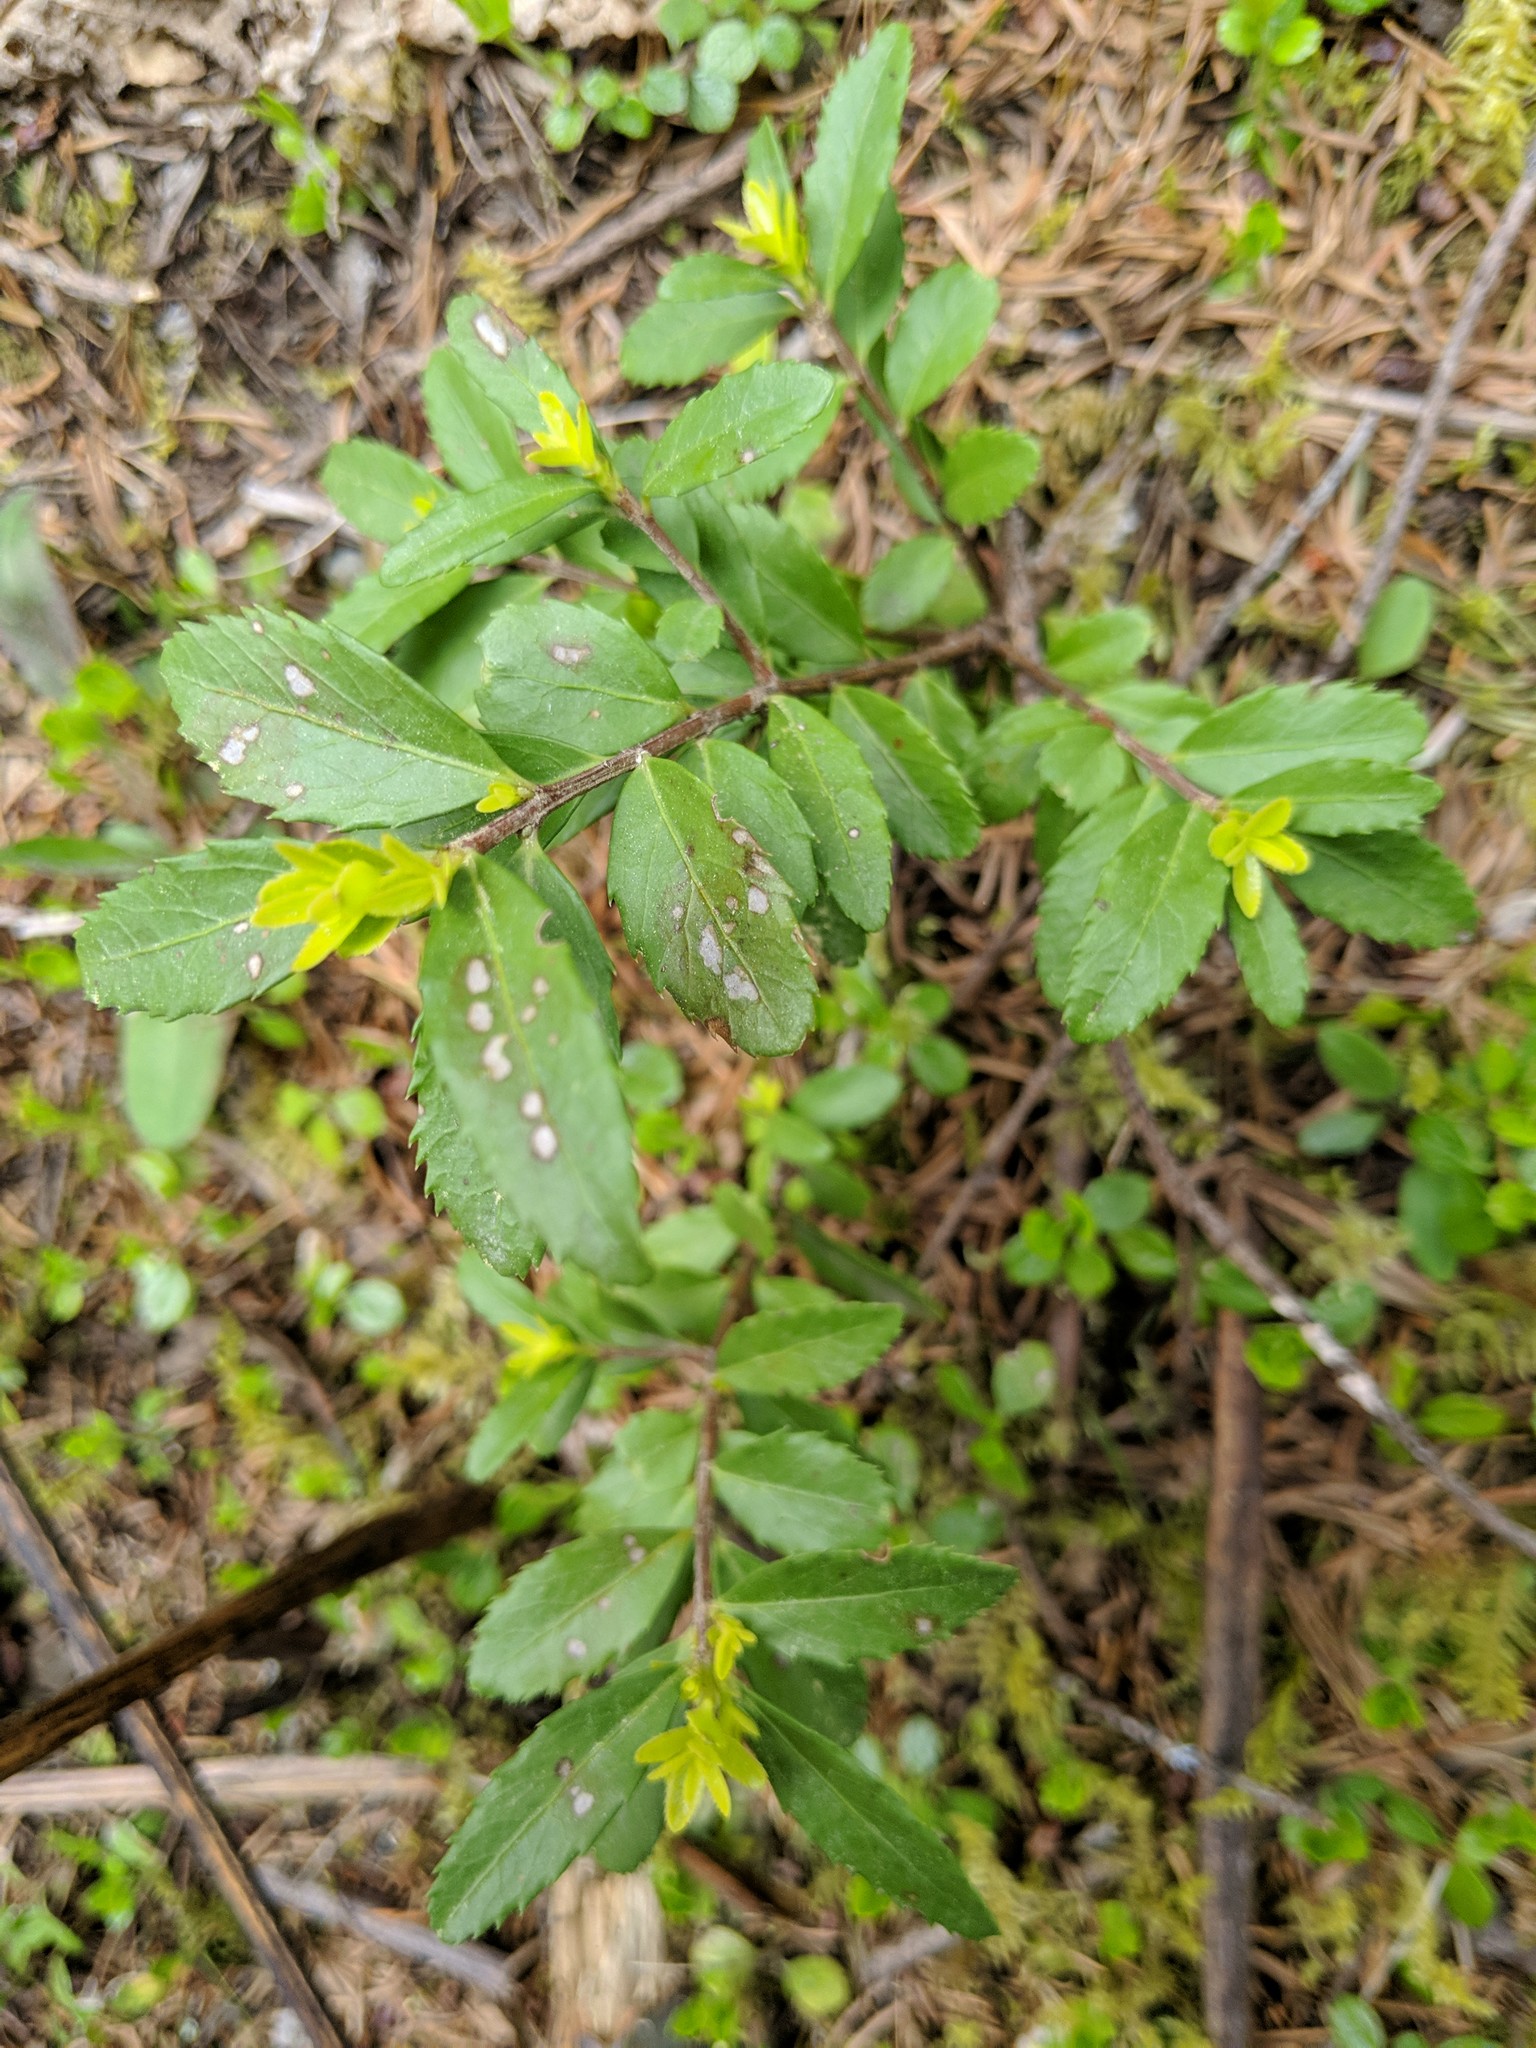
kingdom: Plantae
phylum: Tracheophyta
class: Magnoliopsida
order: Celastrales
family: Celastraceae
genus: Paxistima
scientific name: Paxistima myrsinites
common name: Mountain-lover
